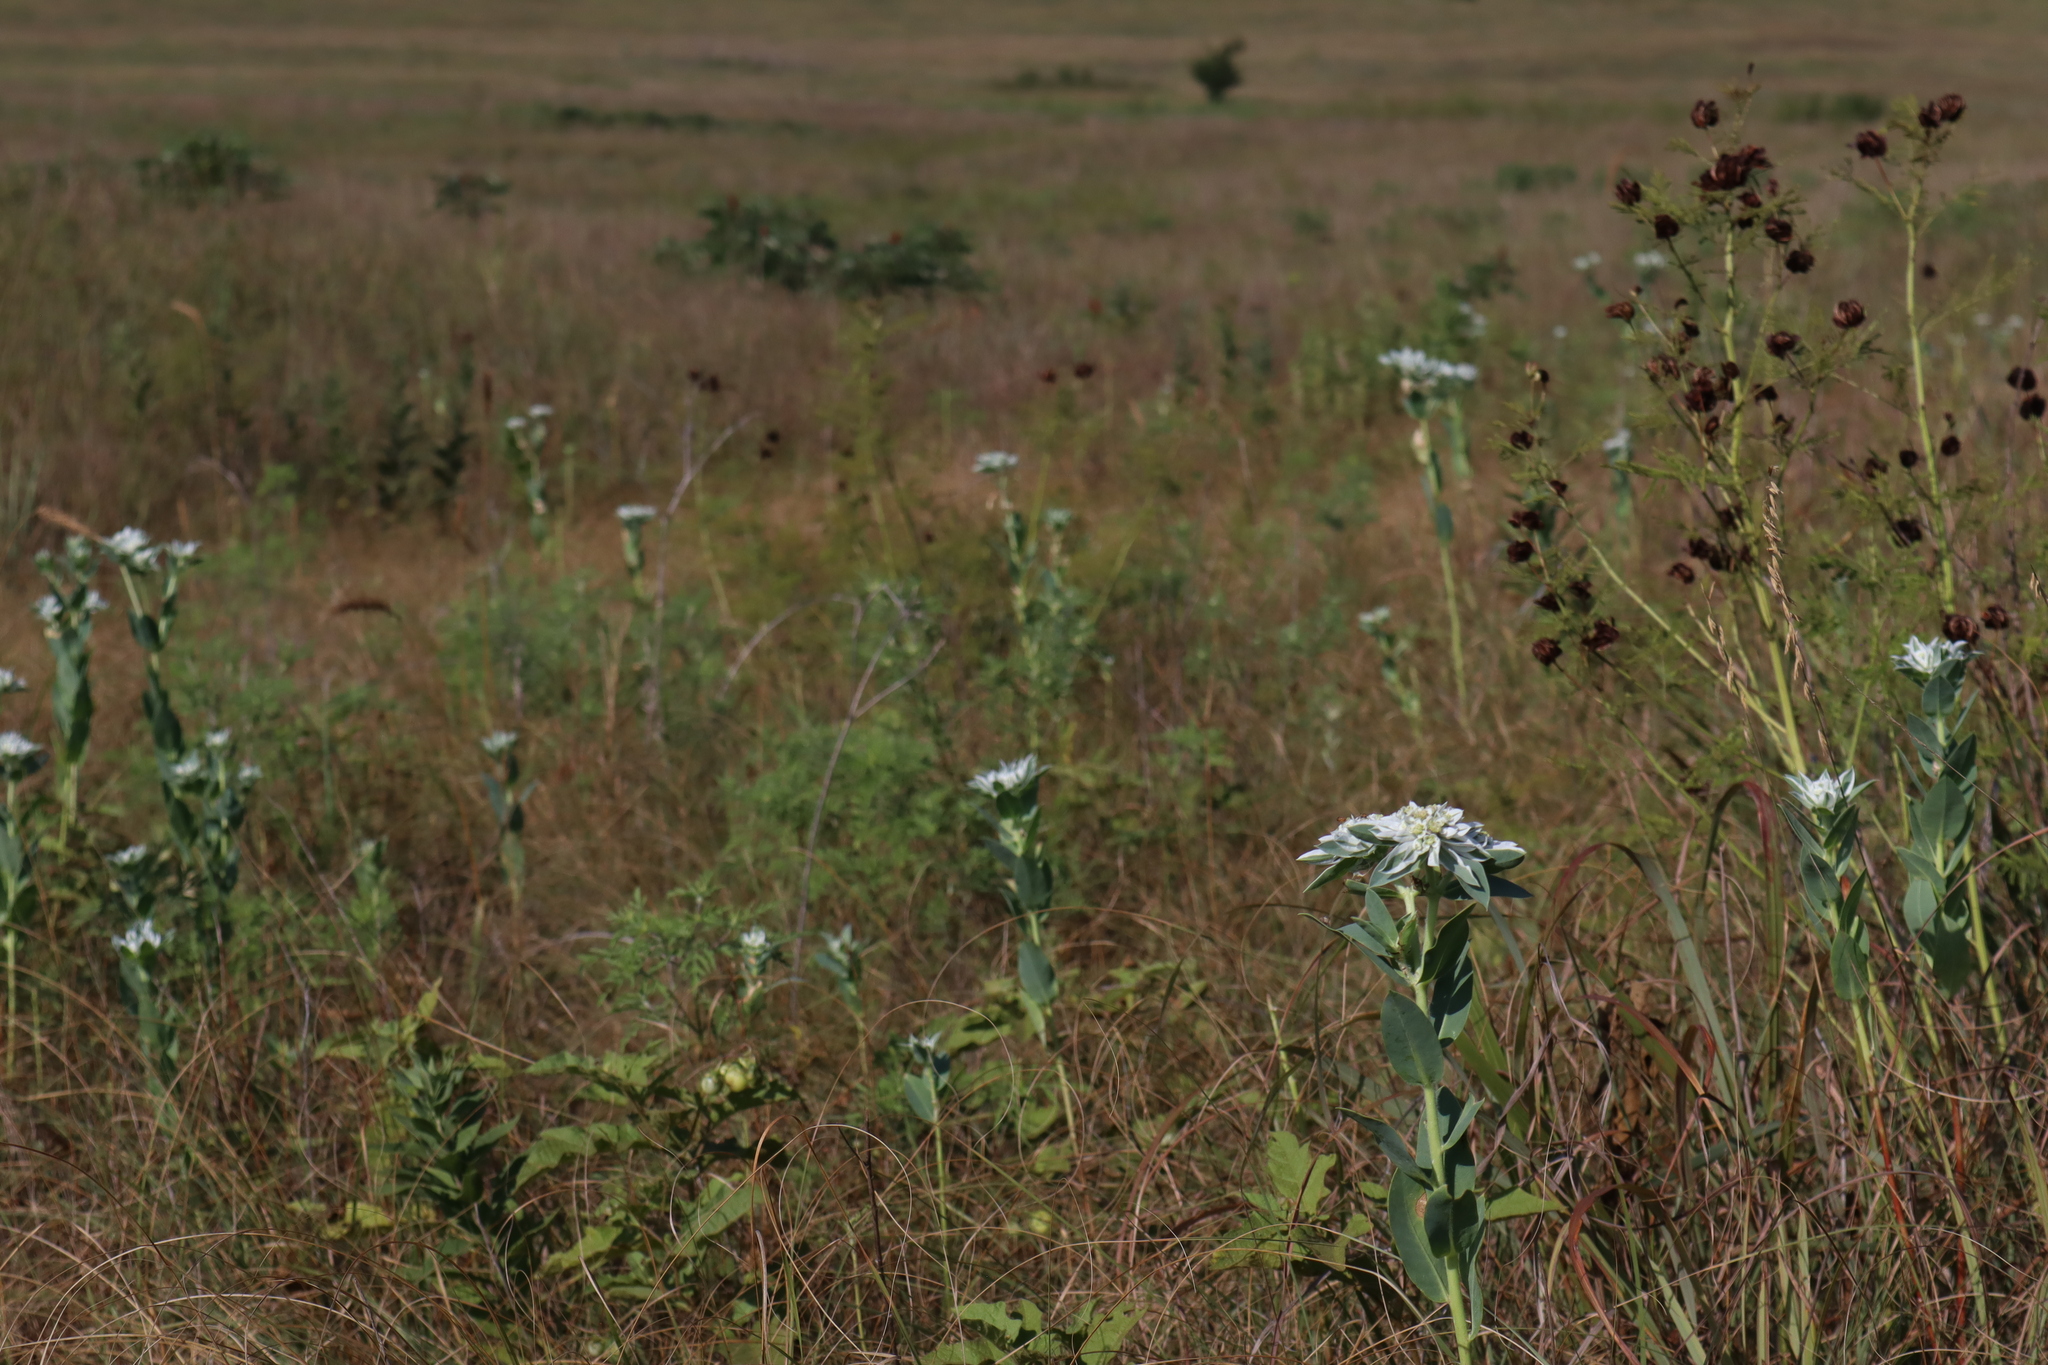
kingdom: Plantae
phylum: Tracheophyta
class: Magnoliopsida
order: Malpighiales
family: Euphorbiaceae
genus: Euphorbia
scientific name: Euphorbia marginata
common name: Ghostweed
